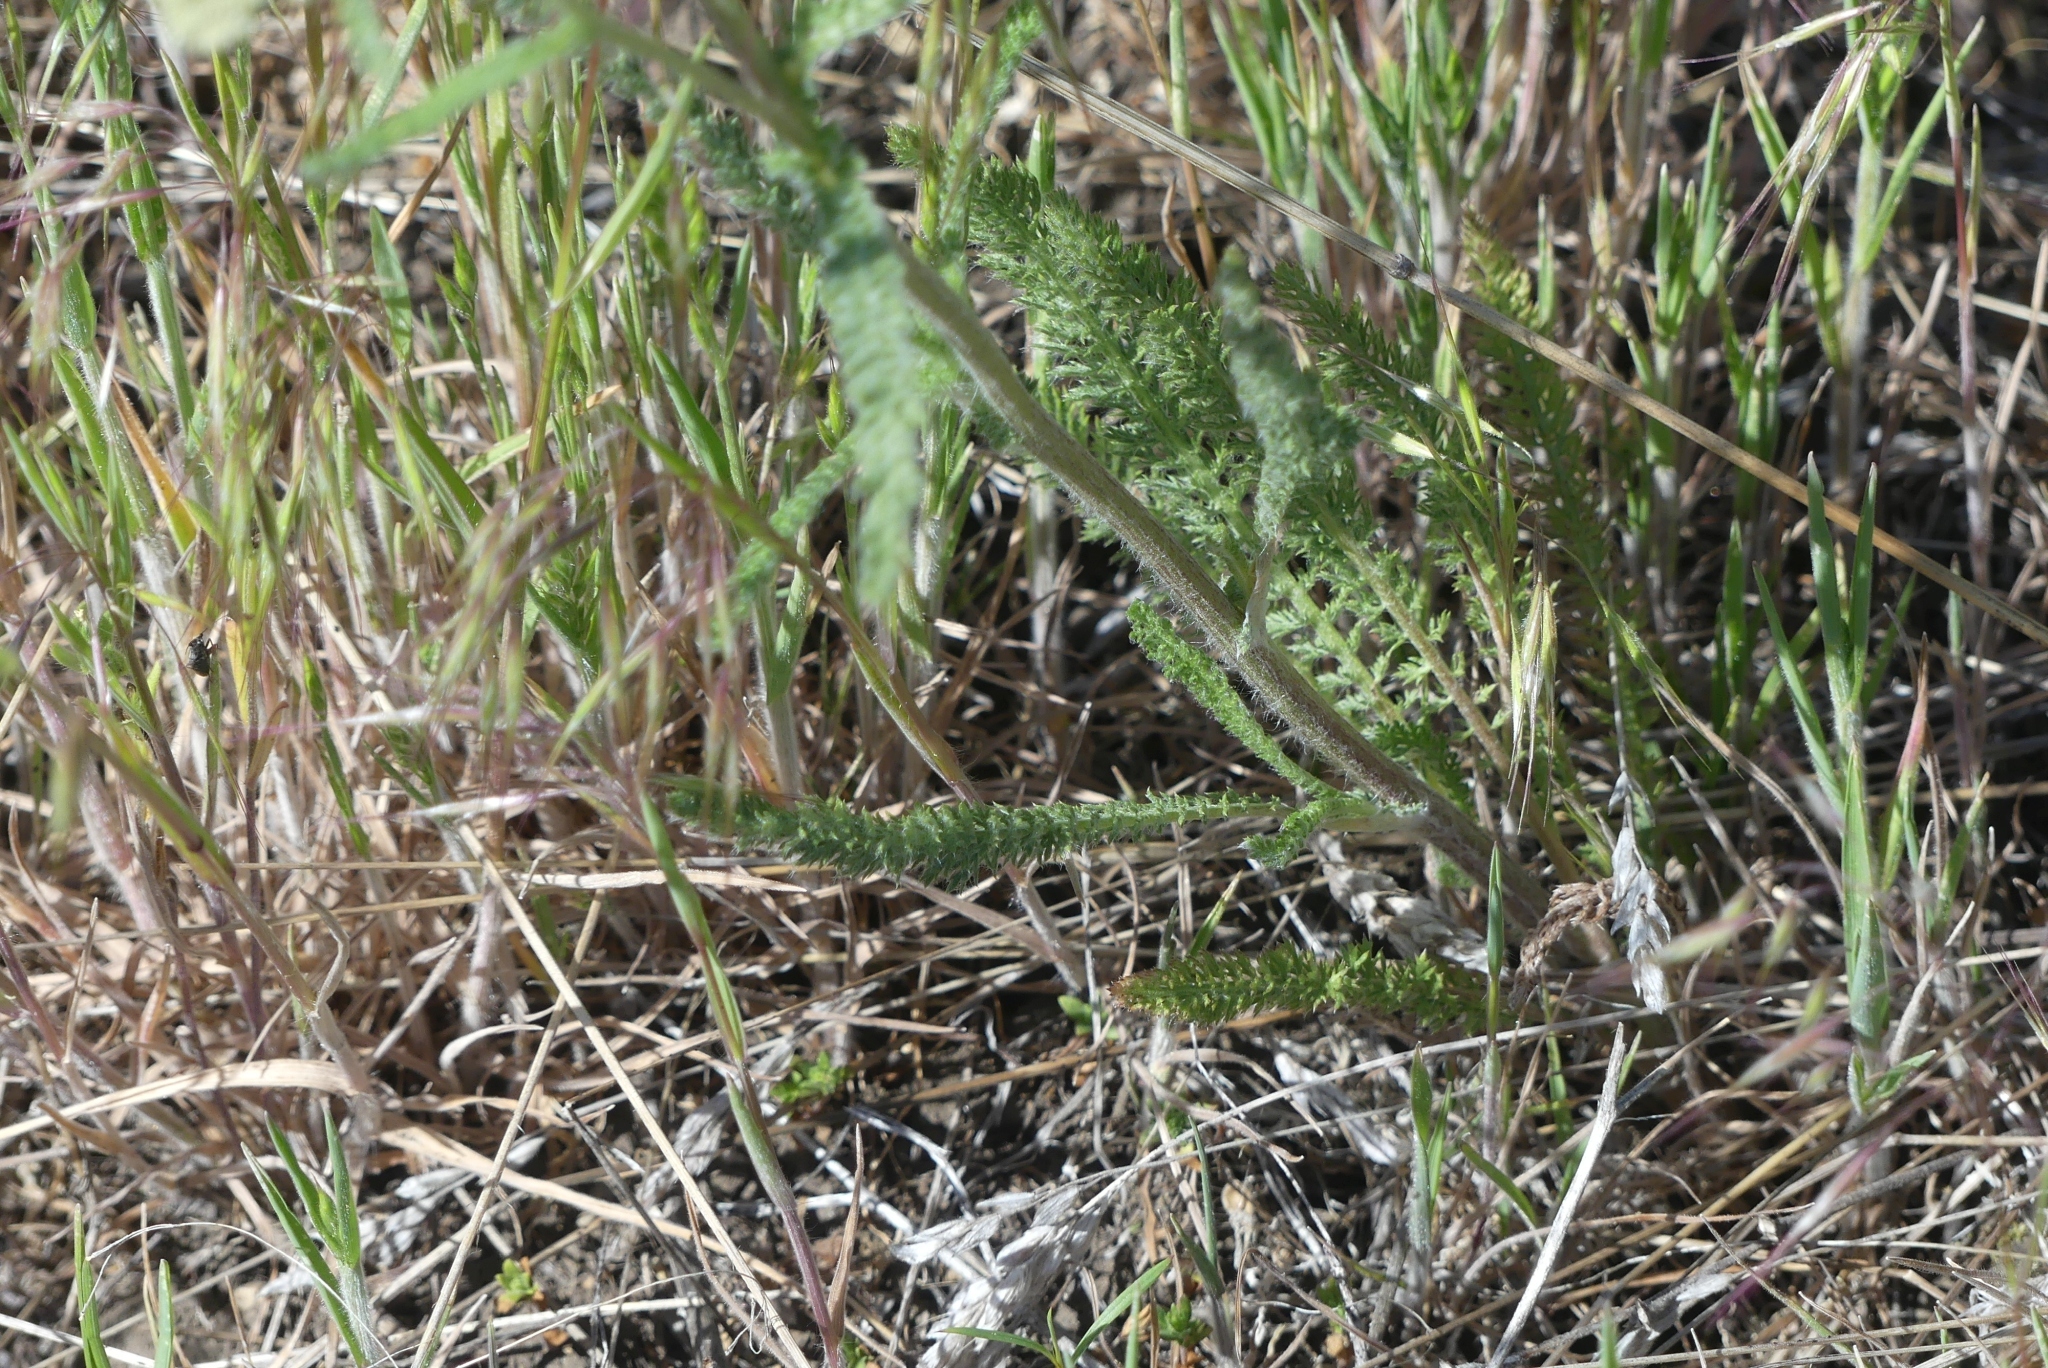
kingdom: Plantae
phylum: Tracheophyta
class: Magnoliopsida
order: Asterales
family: Asteraceae
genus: Achillea
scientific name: Achillea millefolium
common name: Yarrow
